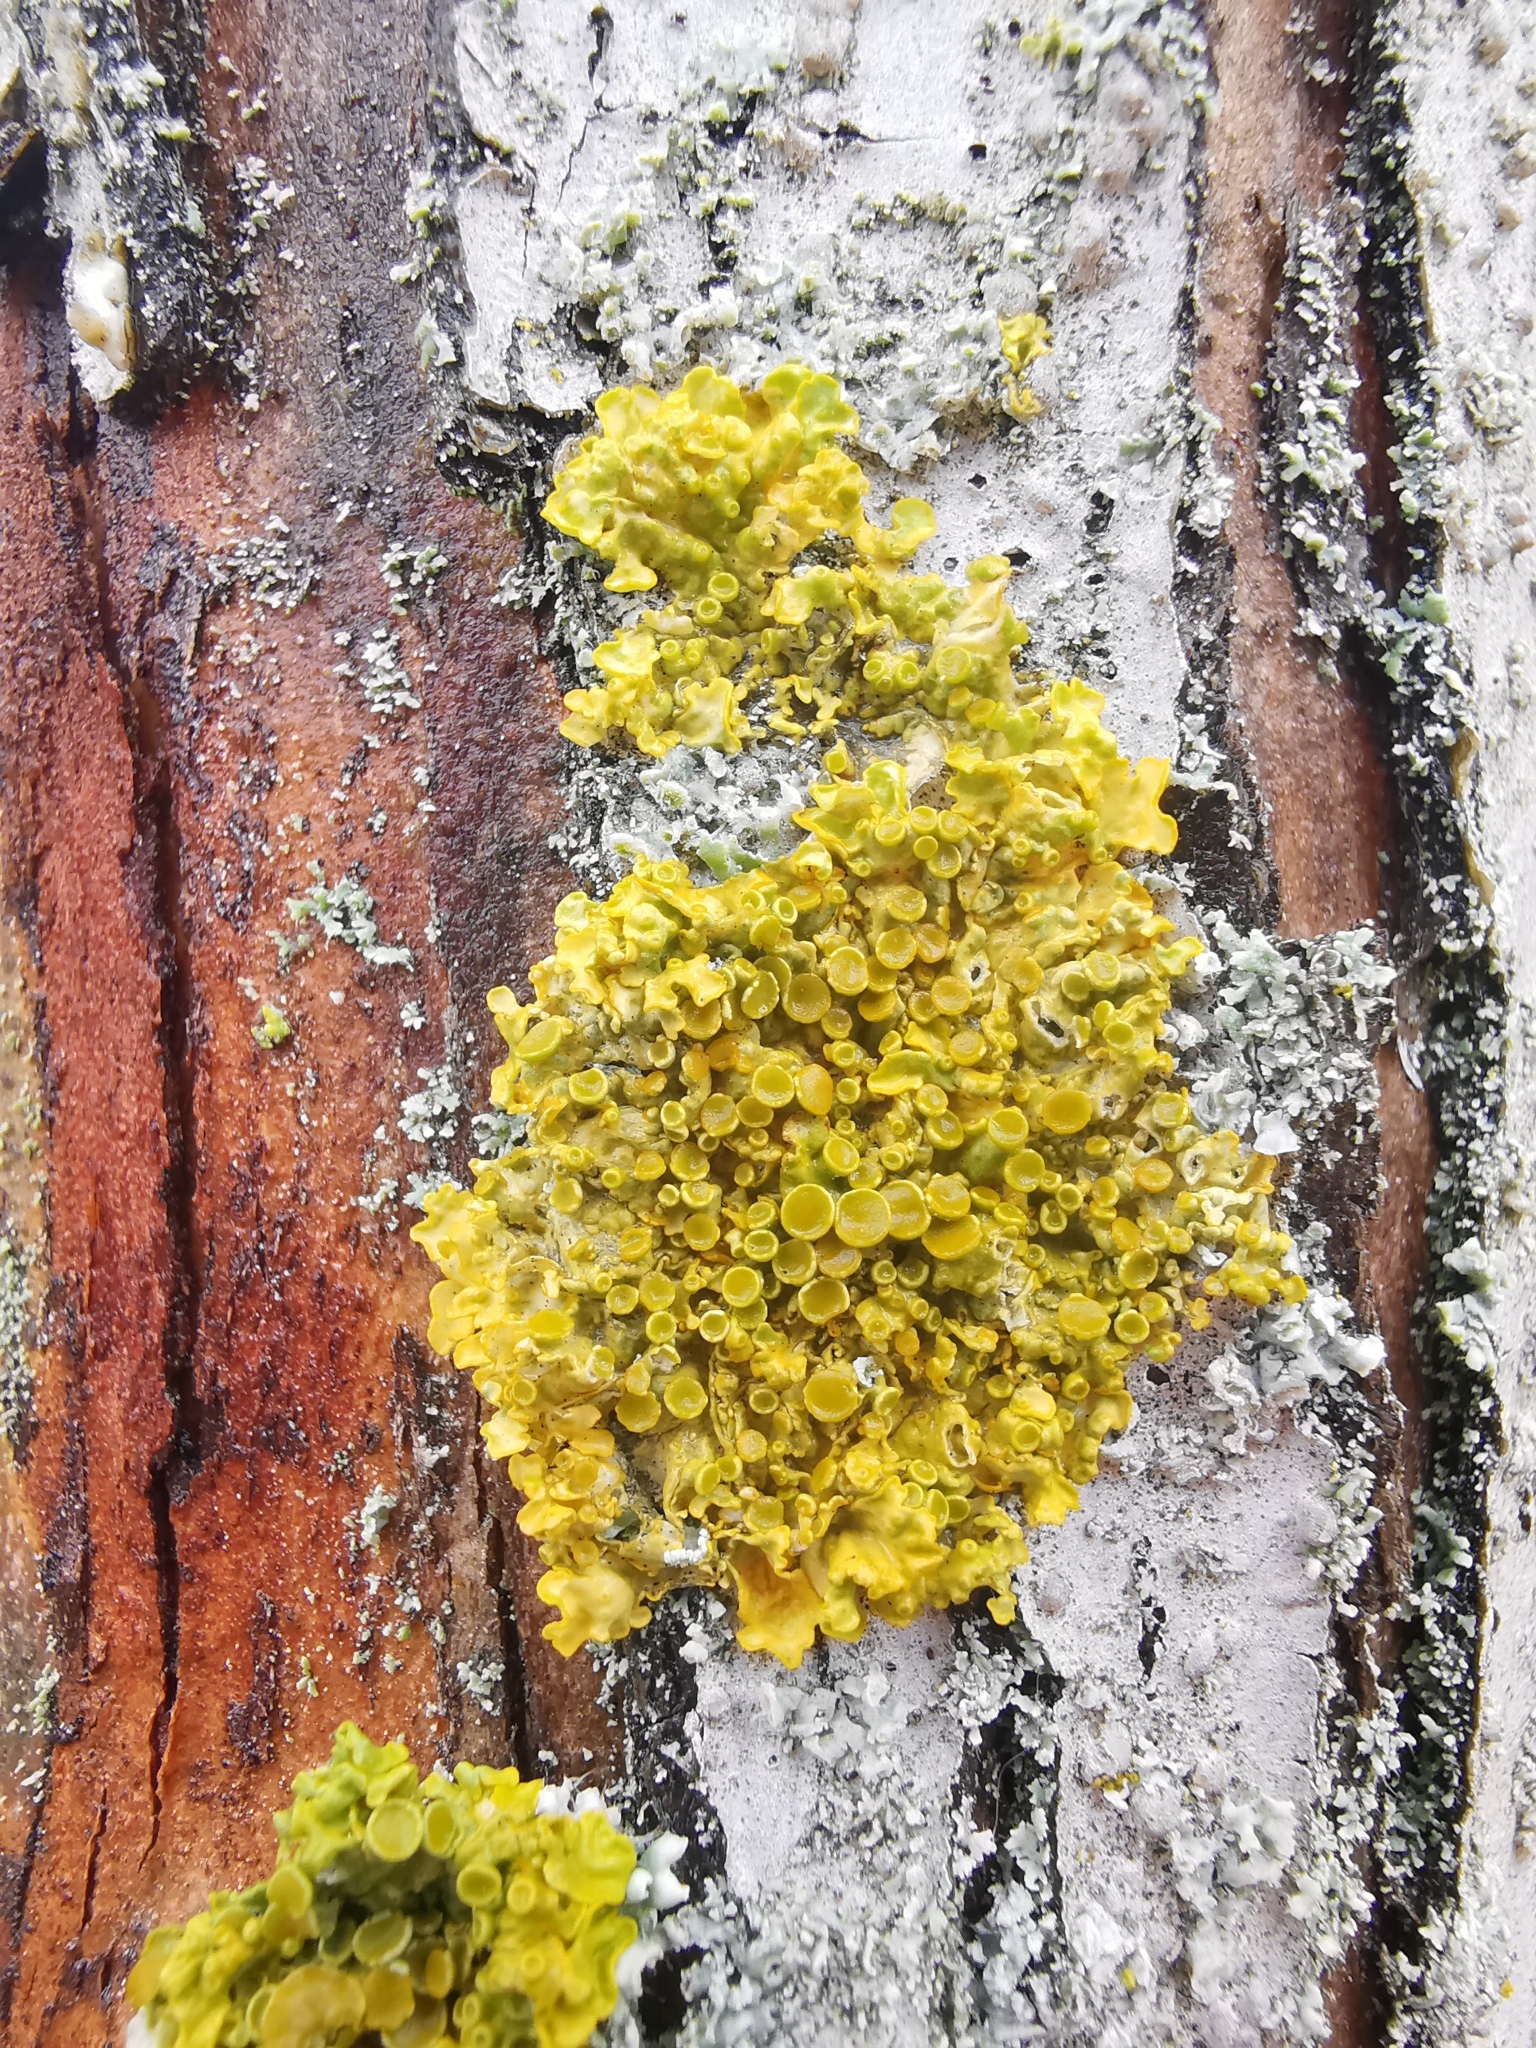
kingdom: Fungi
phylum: Ascomycota
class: Lecanoromycetes
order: Teloschistales
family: Teloschistaceae
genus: Xanthoria
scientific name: Xanthoria parietina
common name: Common orange lichen
